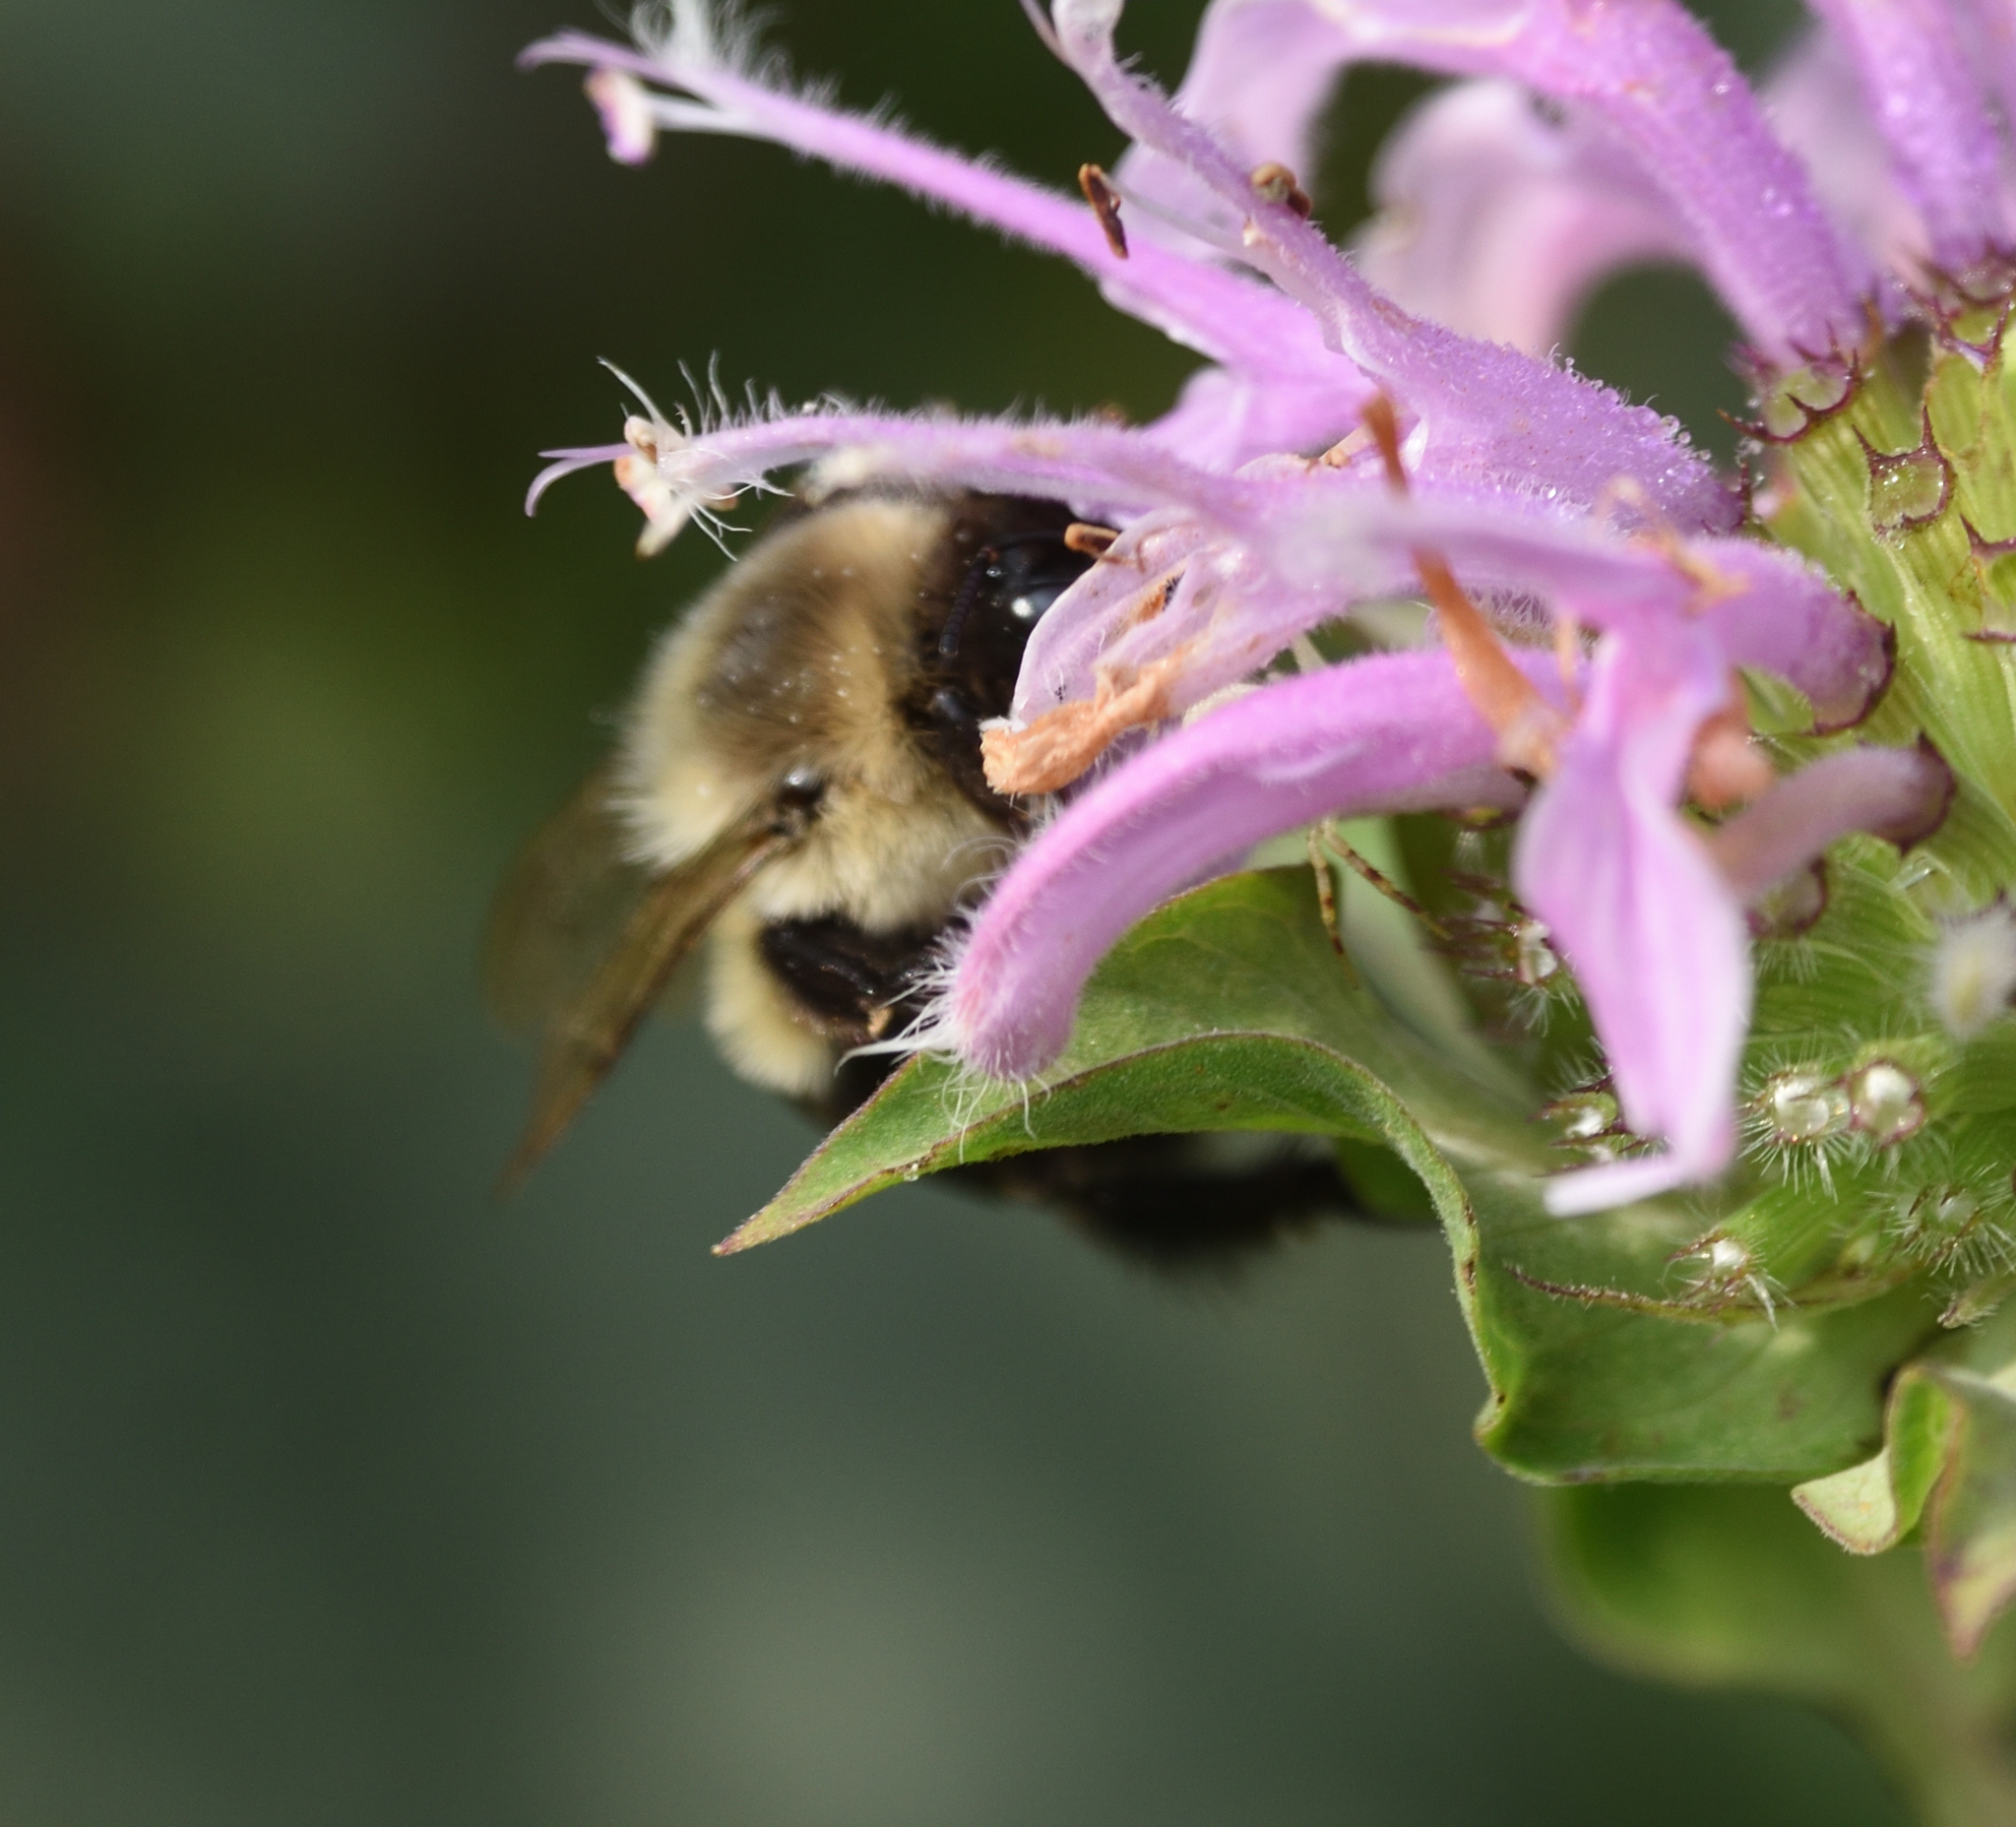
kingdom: Animalia
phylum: Arthropoda
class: Insecta
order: Hymenoptera
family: Apidae
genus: Bombus
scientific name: Bombus impatiens
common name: Common eastern bumble bee
